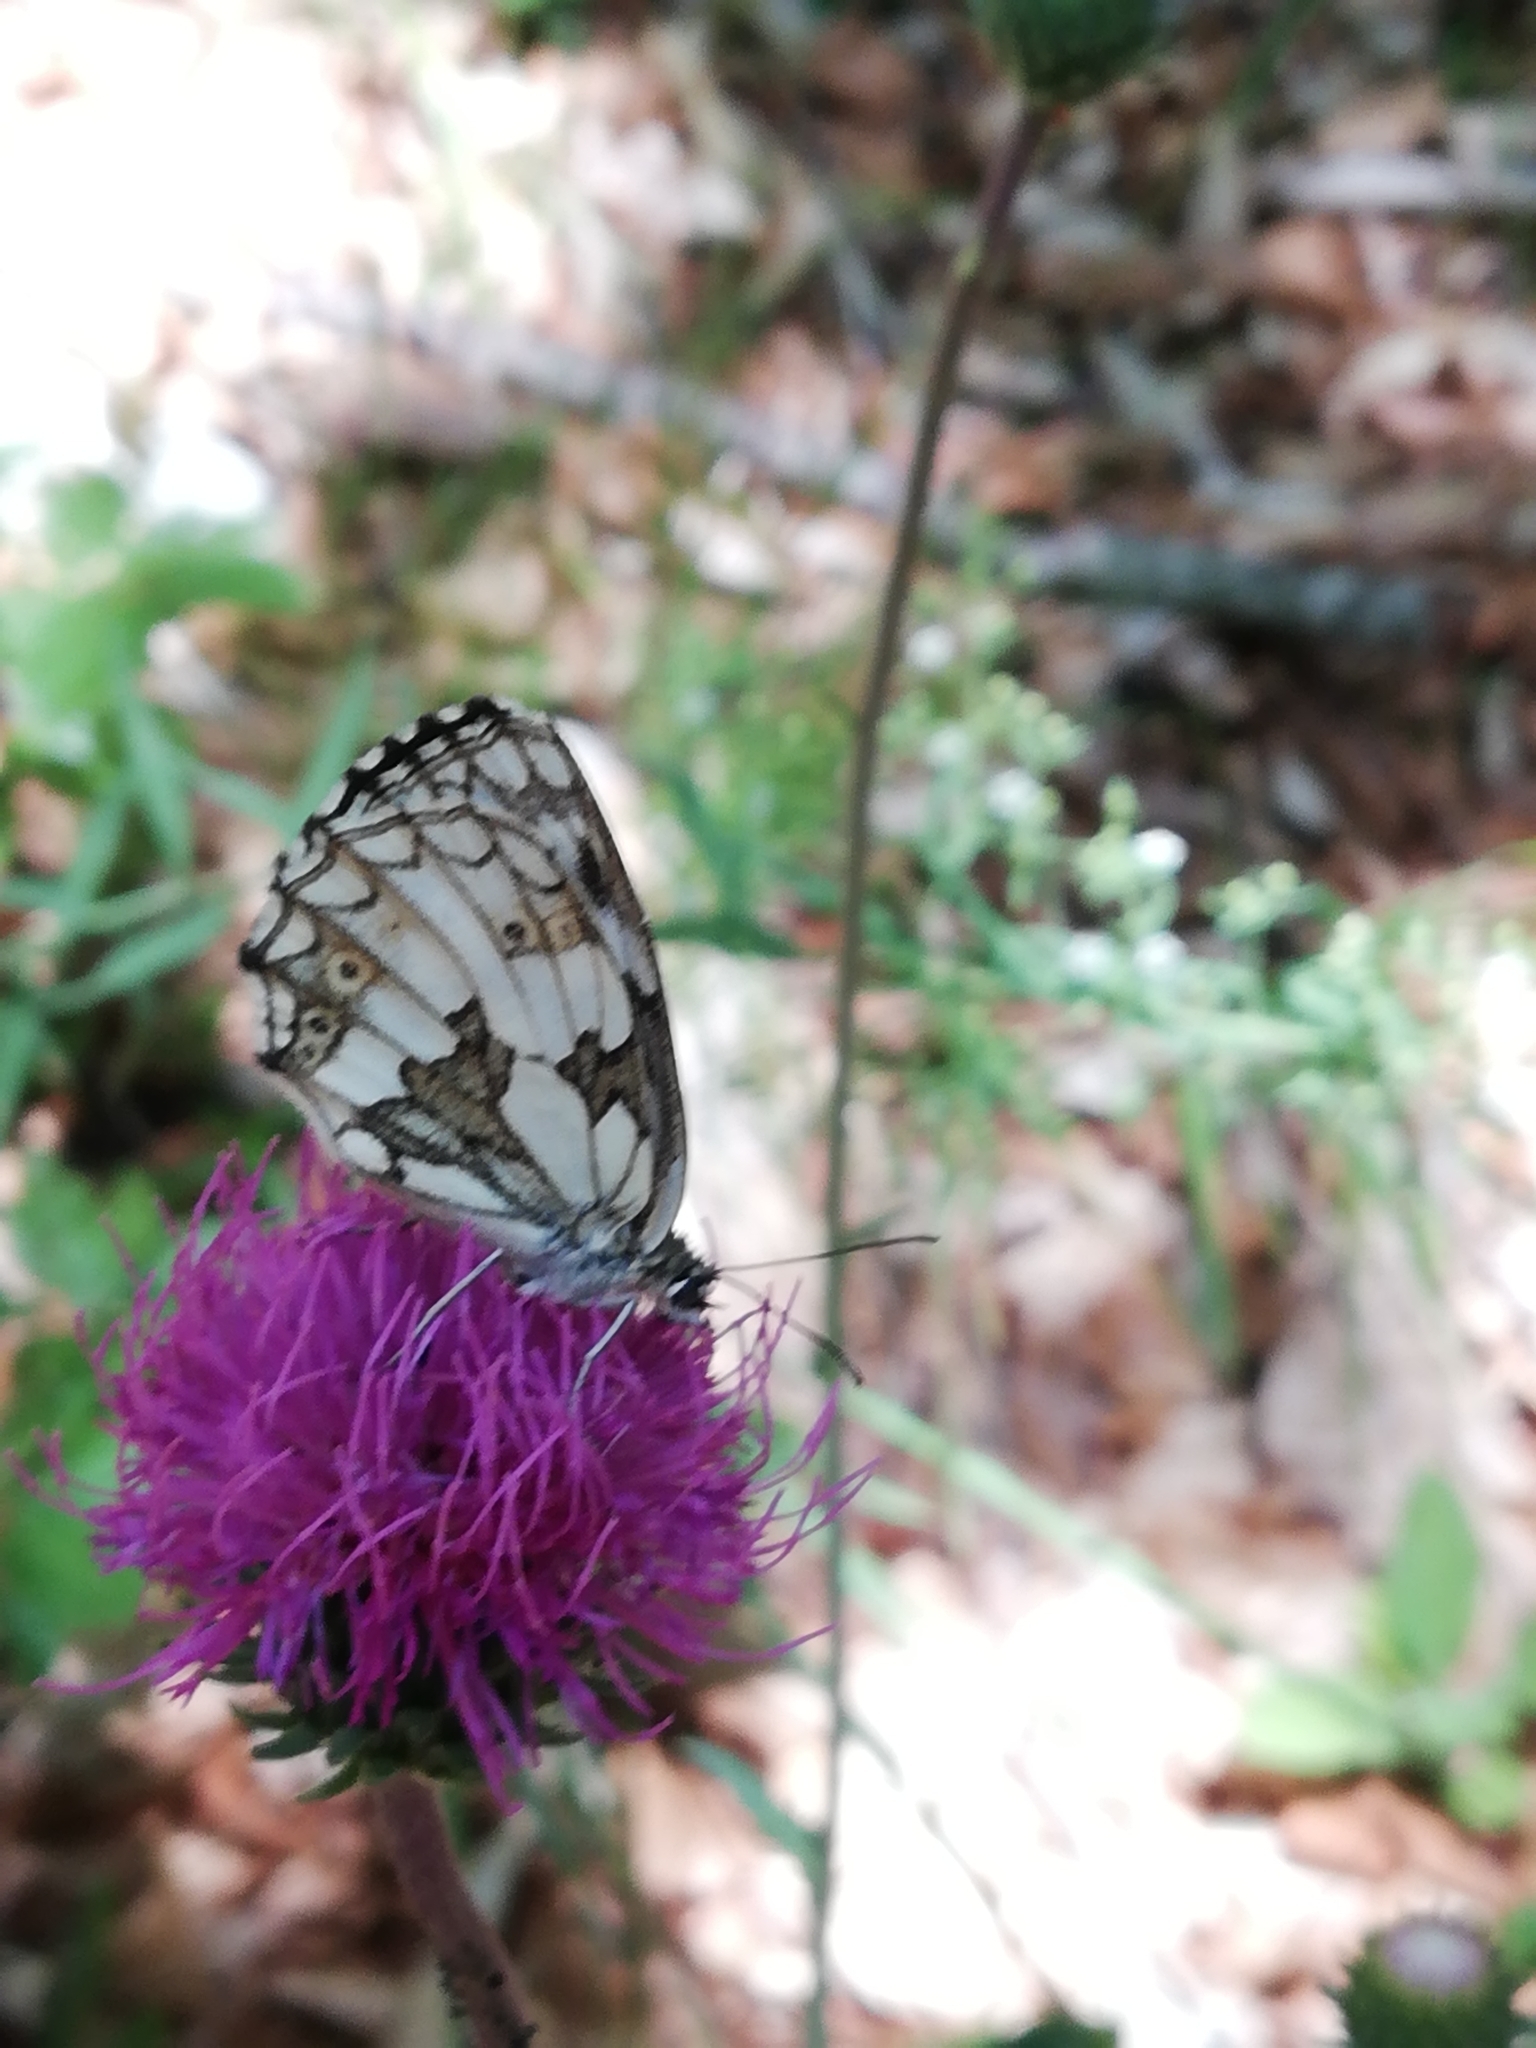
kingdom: Animalia
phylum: Arthropoda
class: Insecta
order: Lepidoptera
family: Nymphalidae
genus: Melanargia
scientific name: Melanargia galathea
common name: Marbled white
